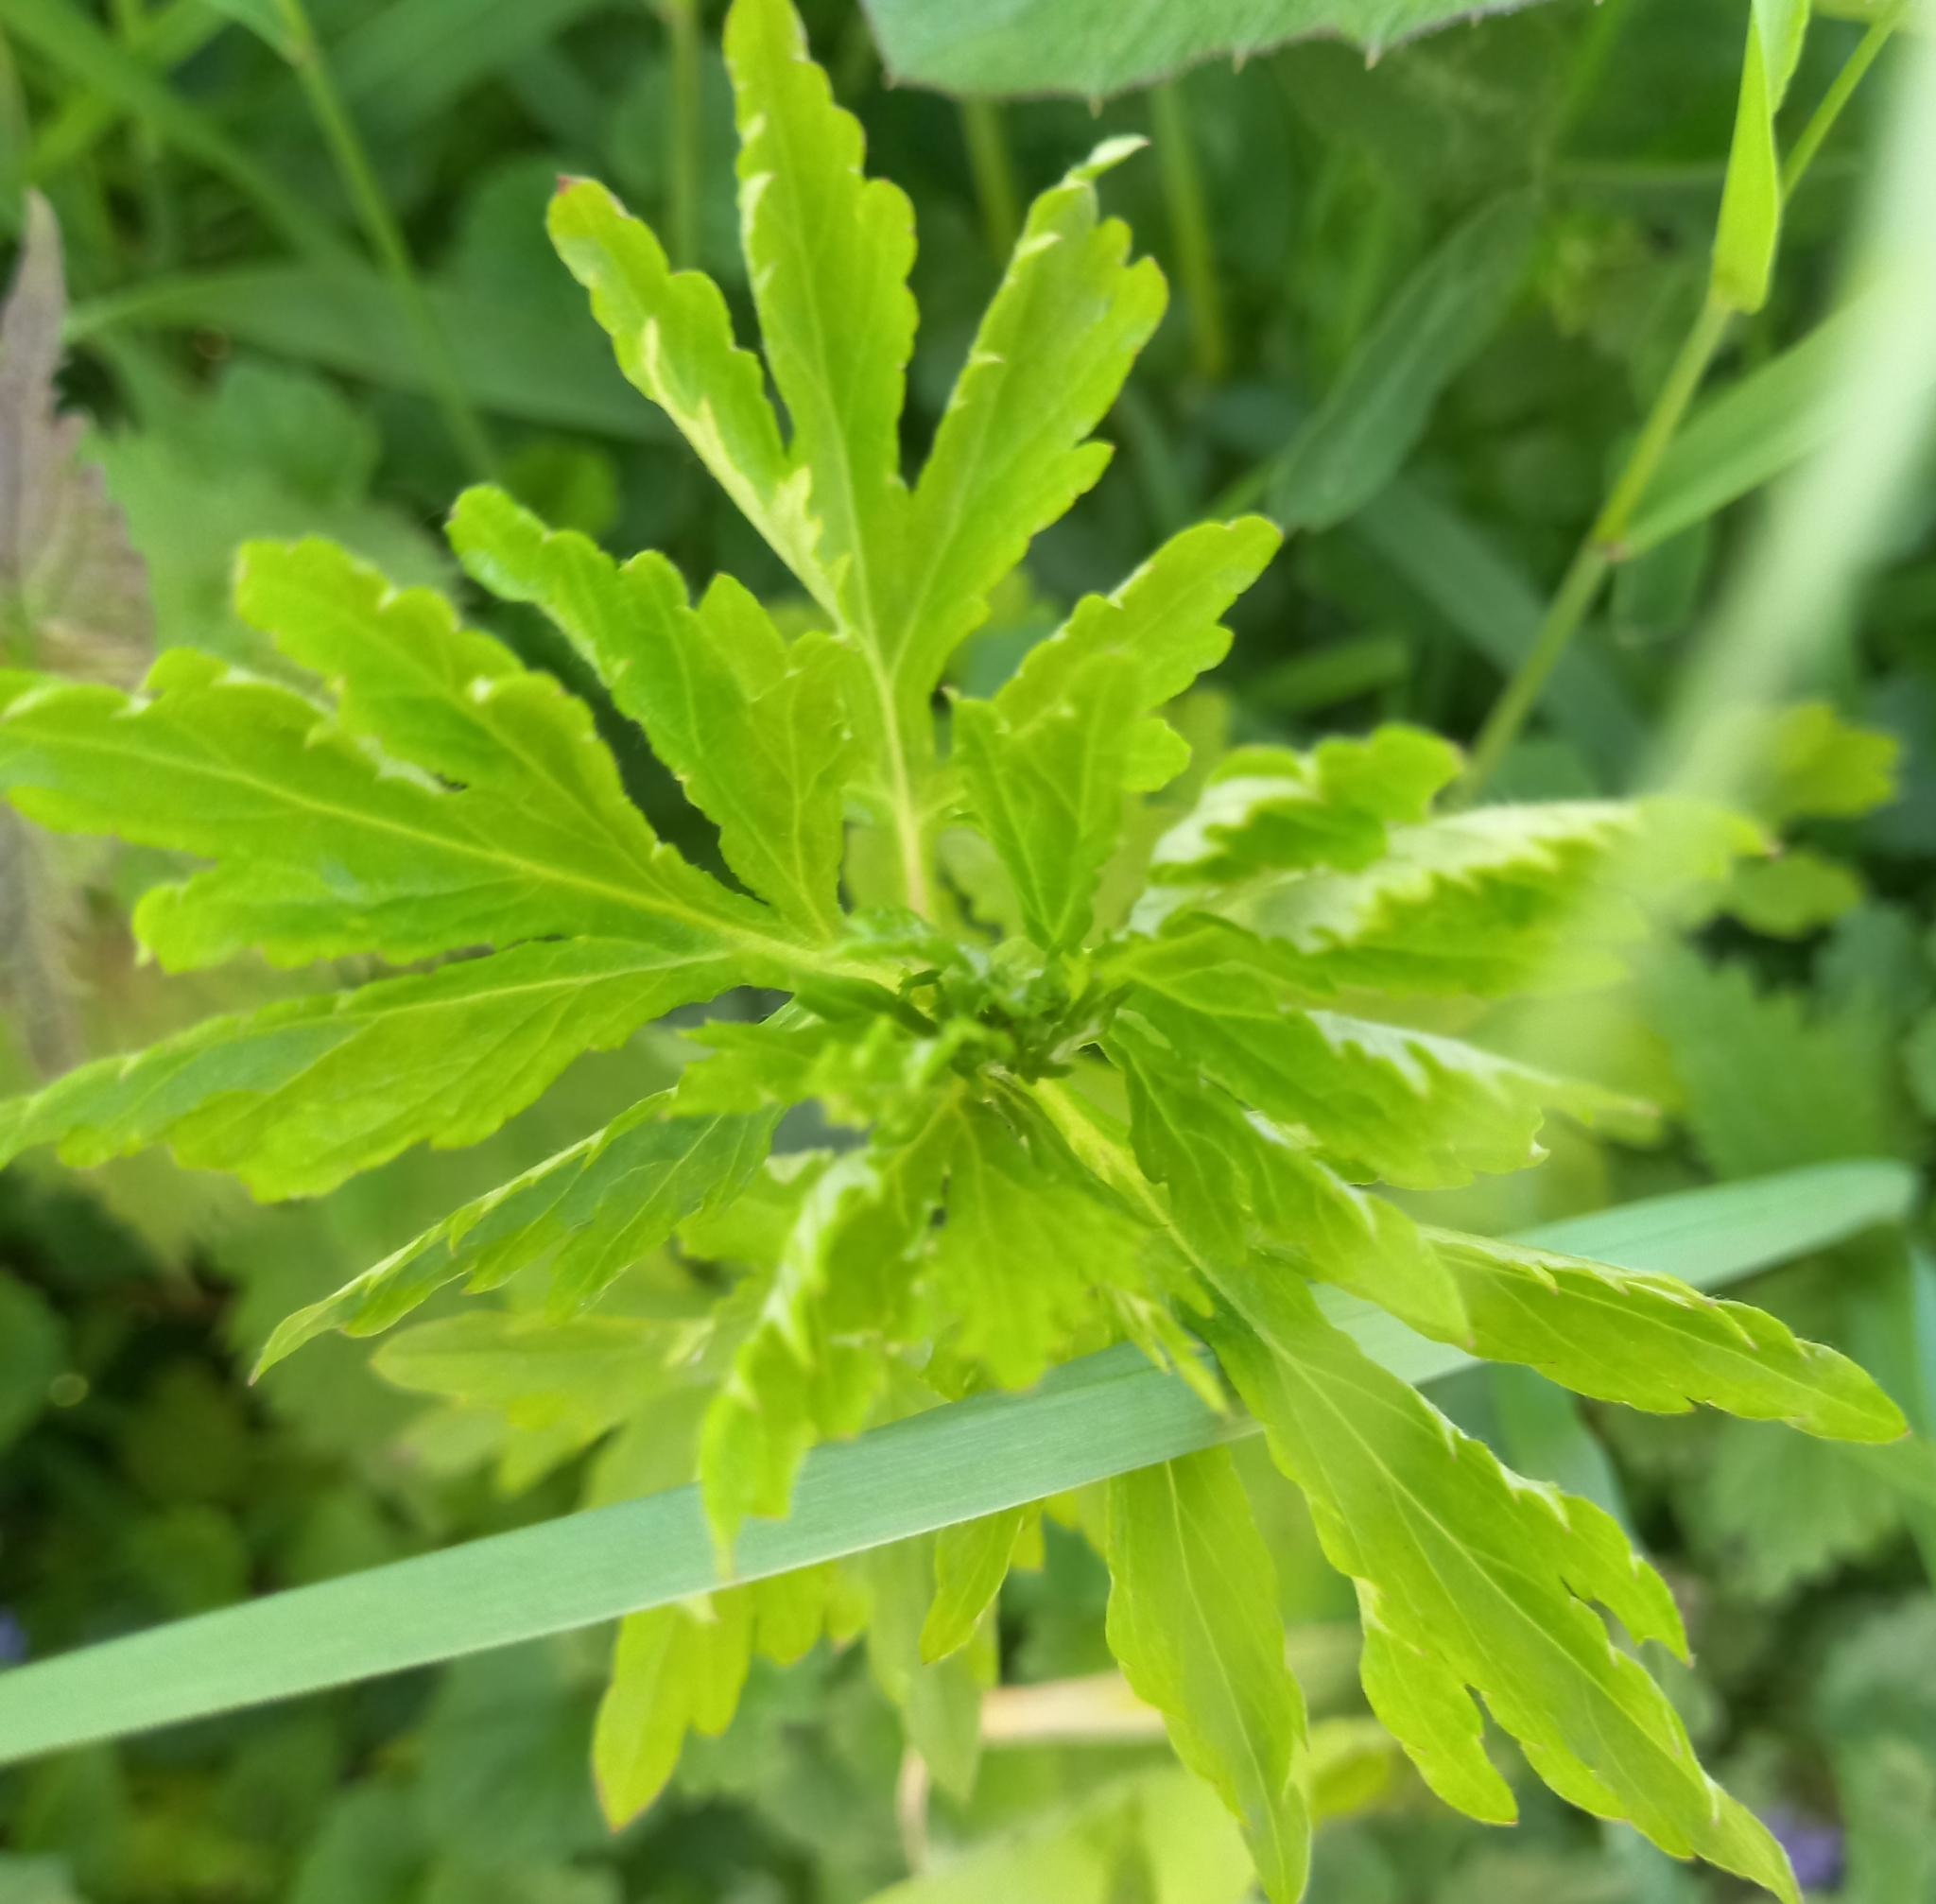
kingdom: Plantae
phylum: Tracheophyta
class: Magnoliopsida
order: Asterales
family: Asteraceae
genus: Artemisia
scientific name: Artemisia vulgaris
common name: Mugwort
